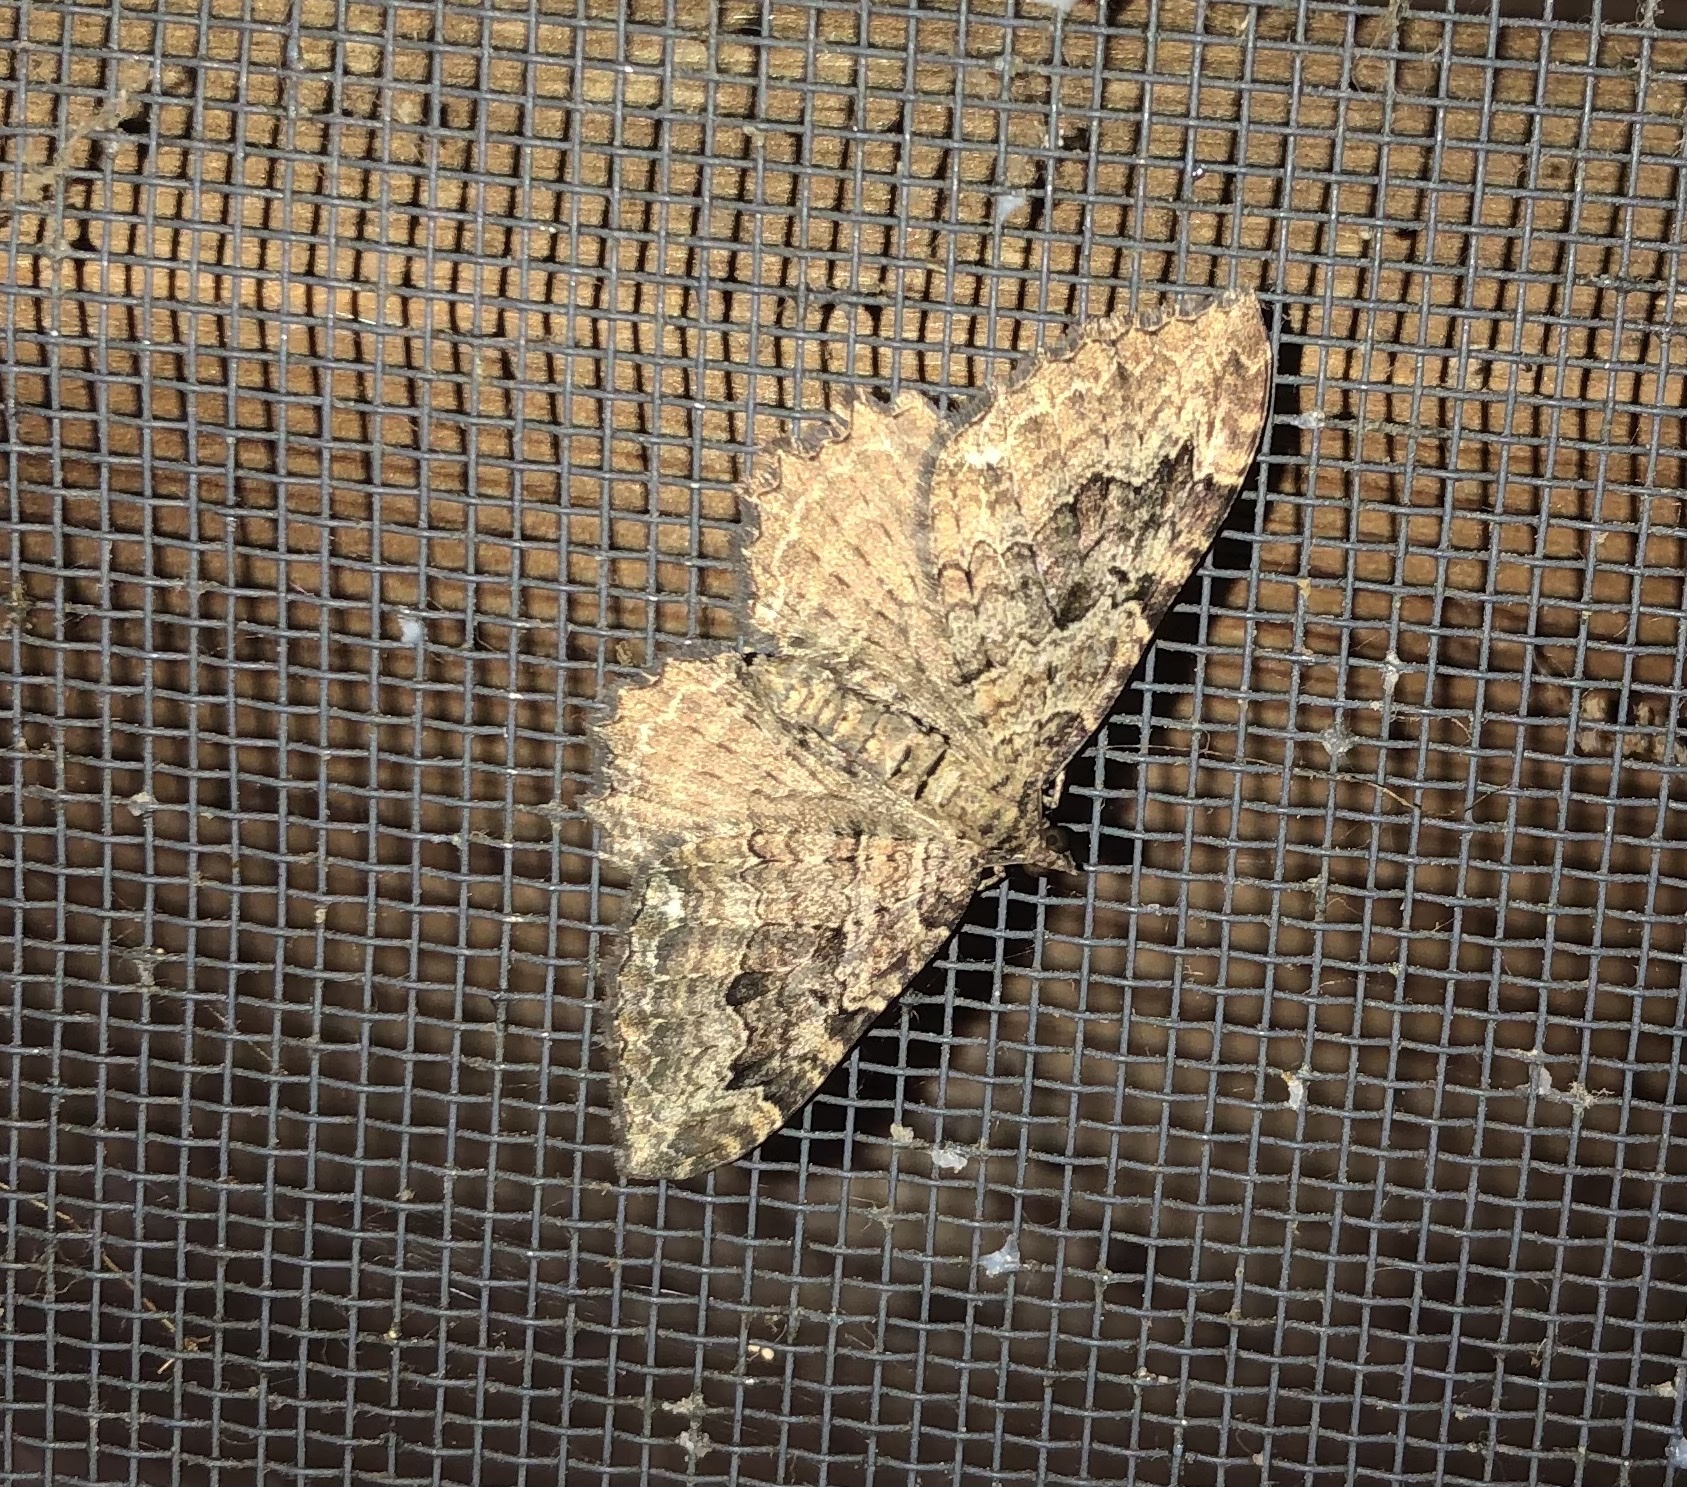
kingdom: Animalia
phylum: Arthropoda
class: Insecta
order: Lepidoptera
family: Geometridae
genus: Rheumaptera
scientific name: Rheumaptera
